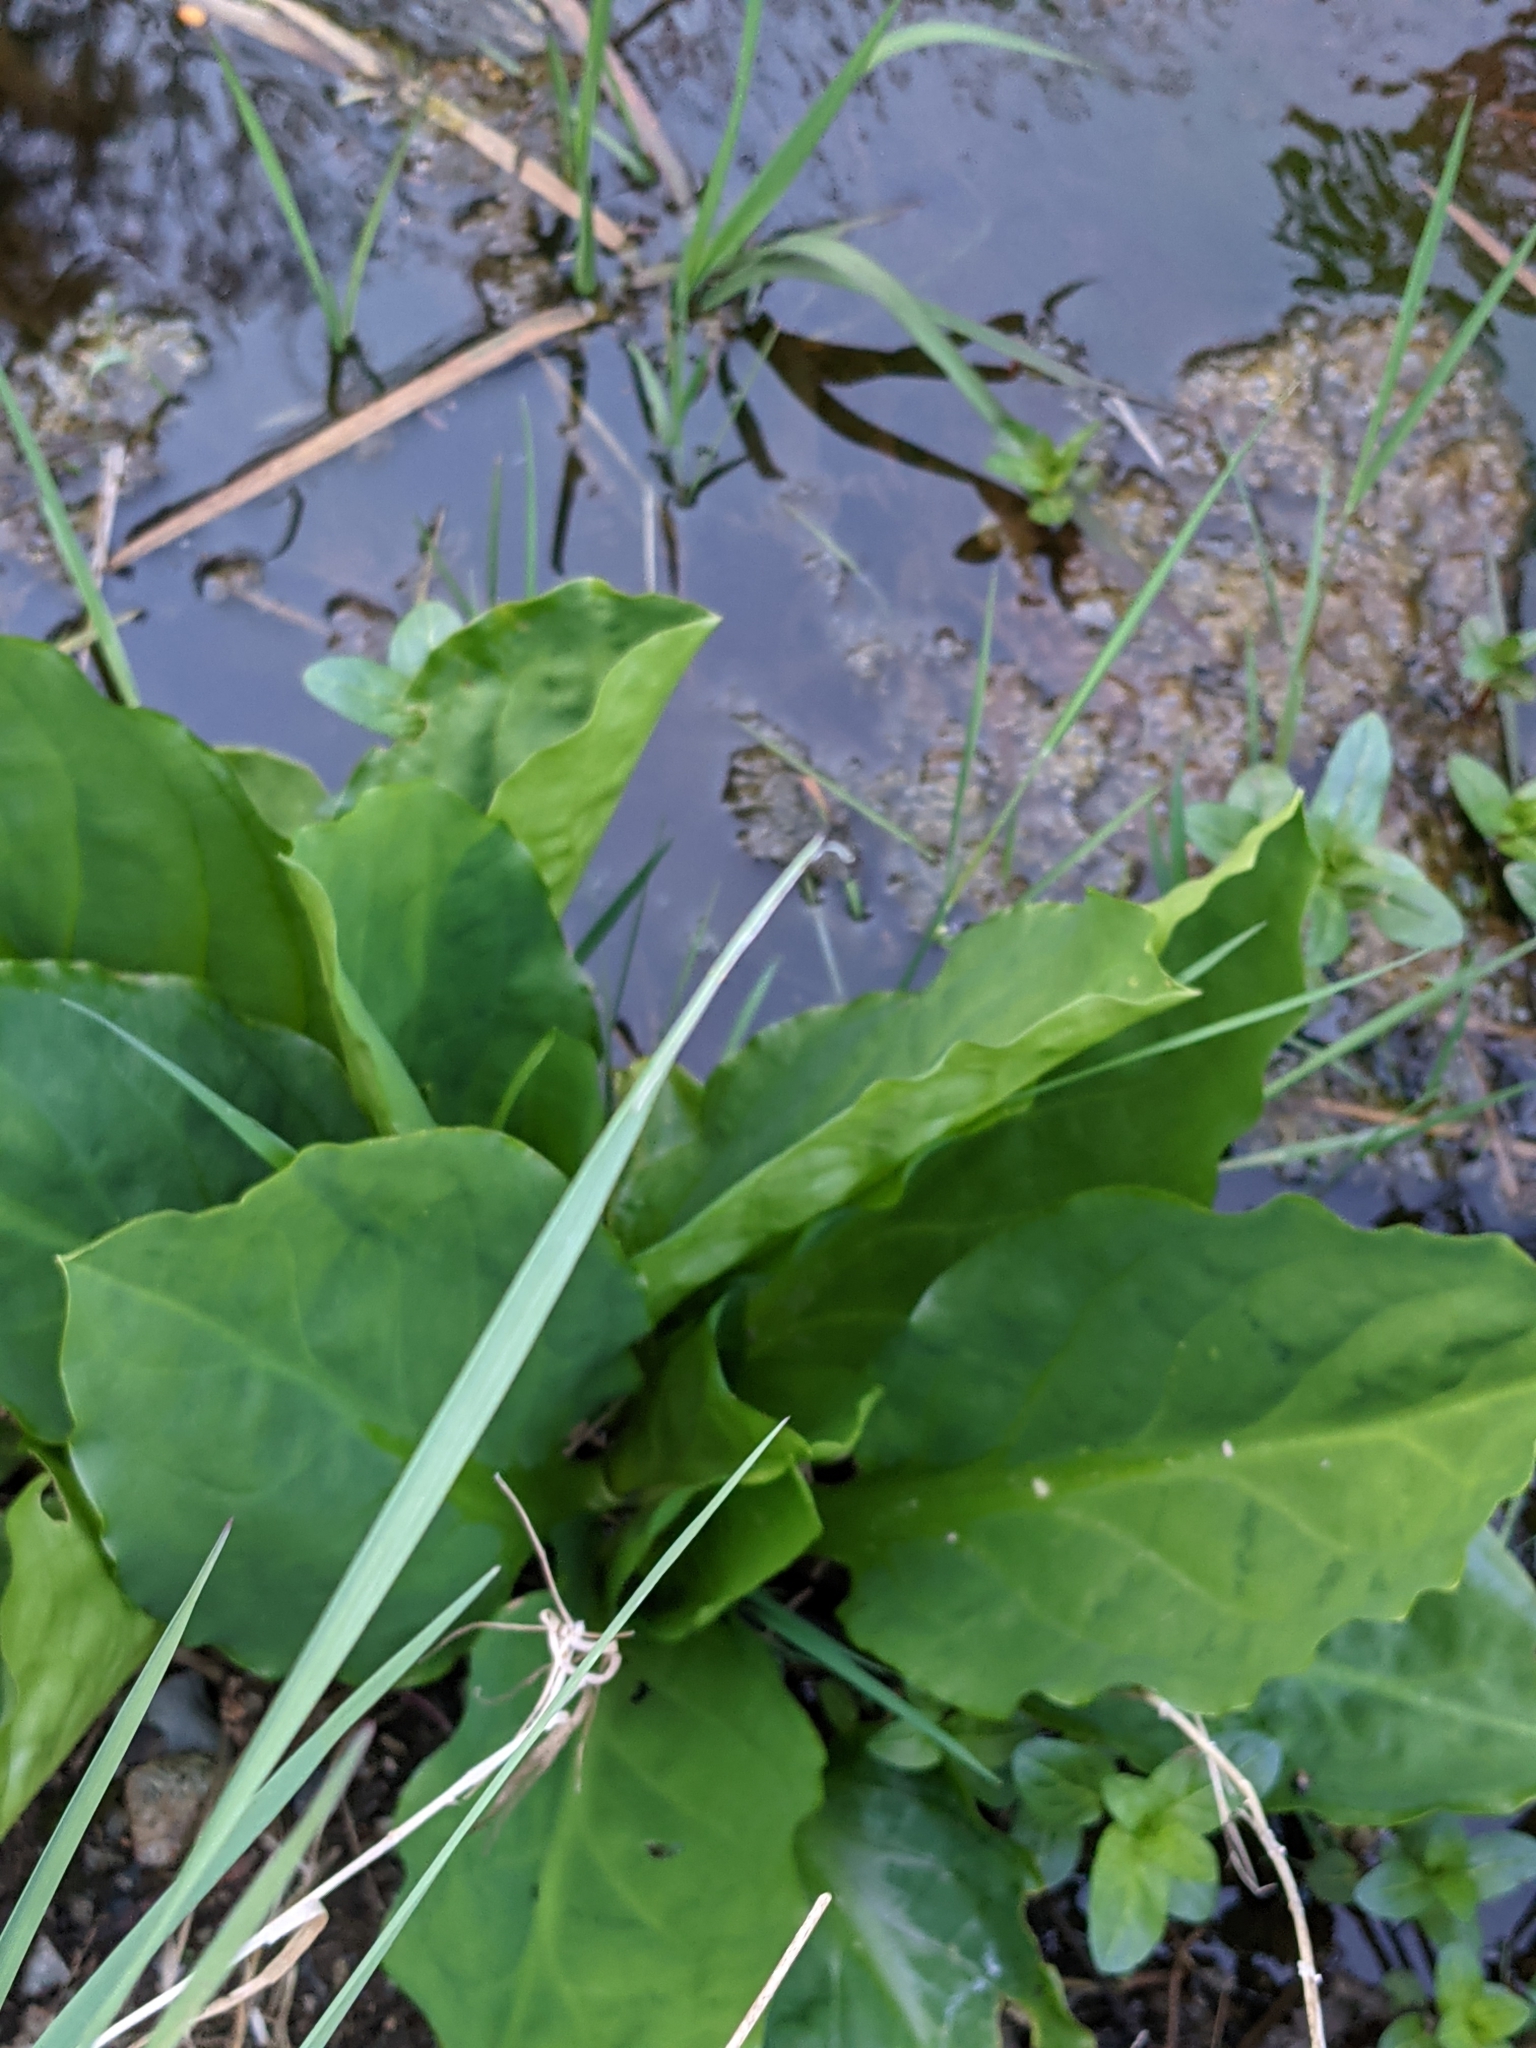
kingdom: Plantae
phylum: Tracheophyta
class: Liliopsida
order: Alismatales
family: Araceae
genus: Lysichiton
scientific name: Lysichiton americanus
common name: American skunk cabbage
